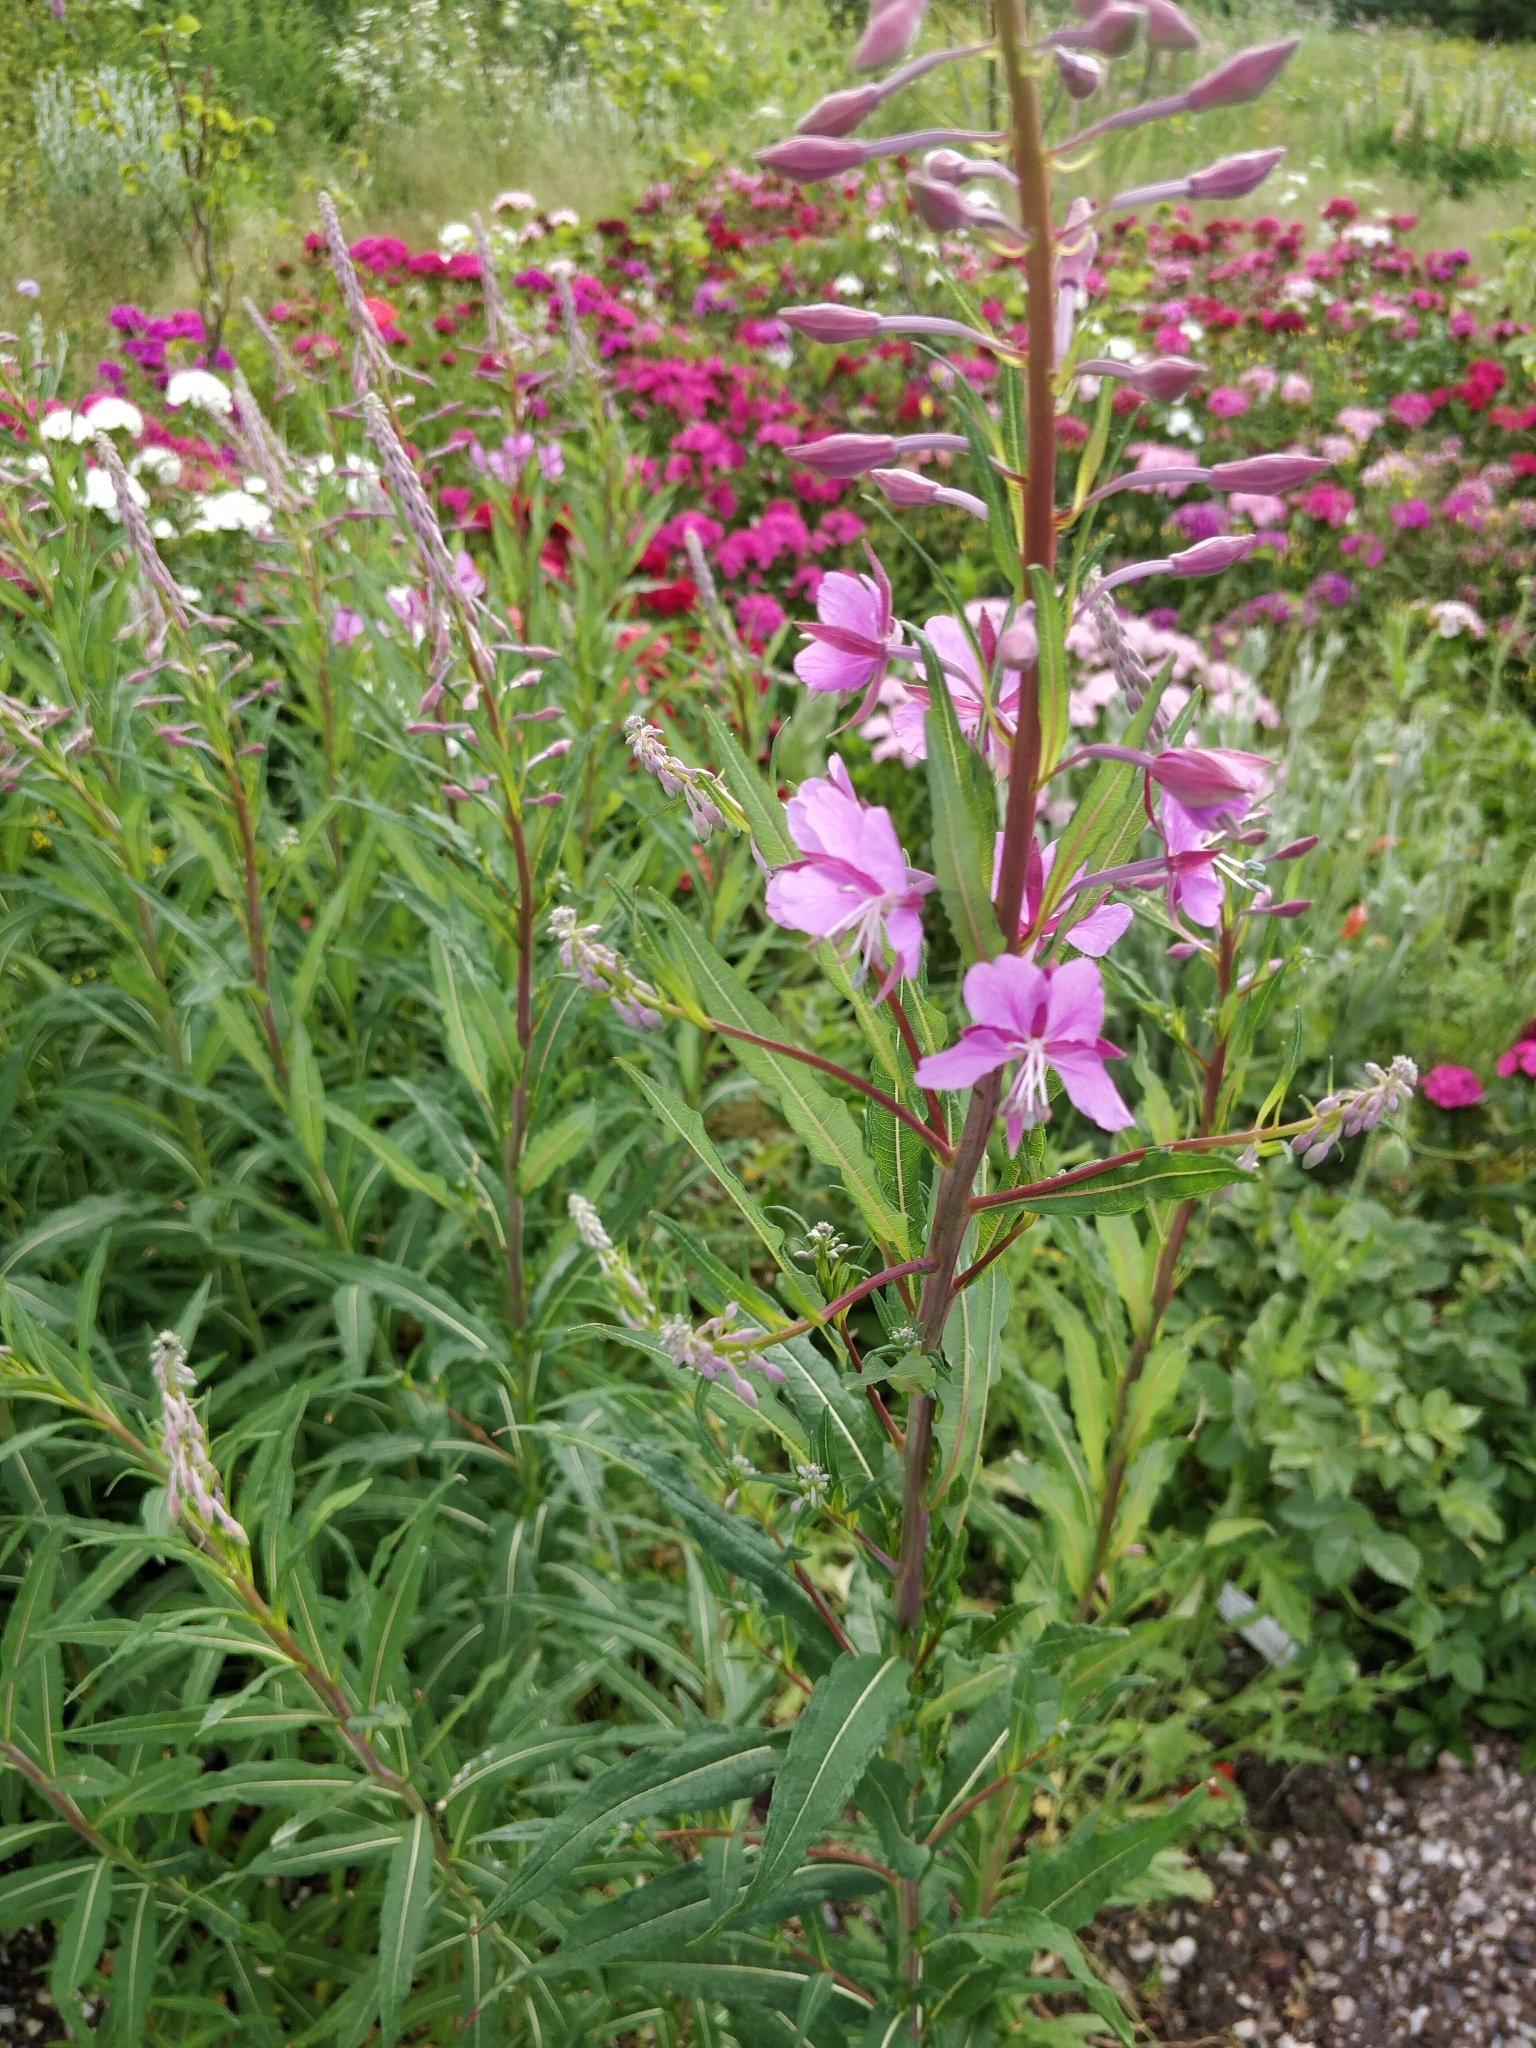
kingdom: Plantae
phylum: Tracheophyta
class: Magnoliopsida
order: Myrtales
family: Onagraceae
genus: Chamaenerion
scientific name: Chamaenerion angustifolium
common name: Fireweed
